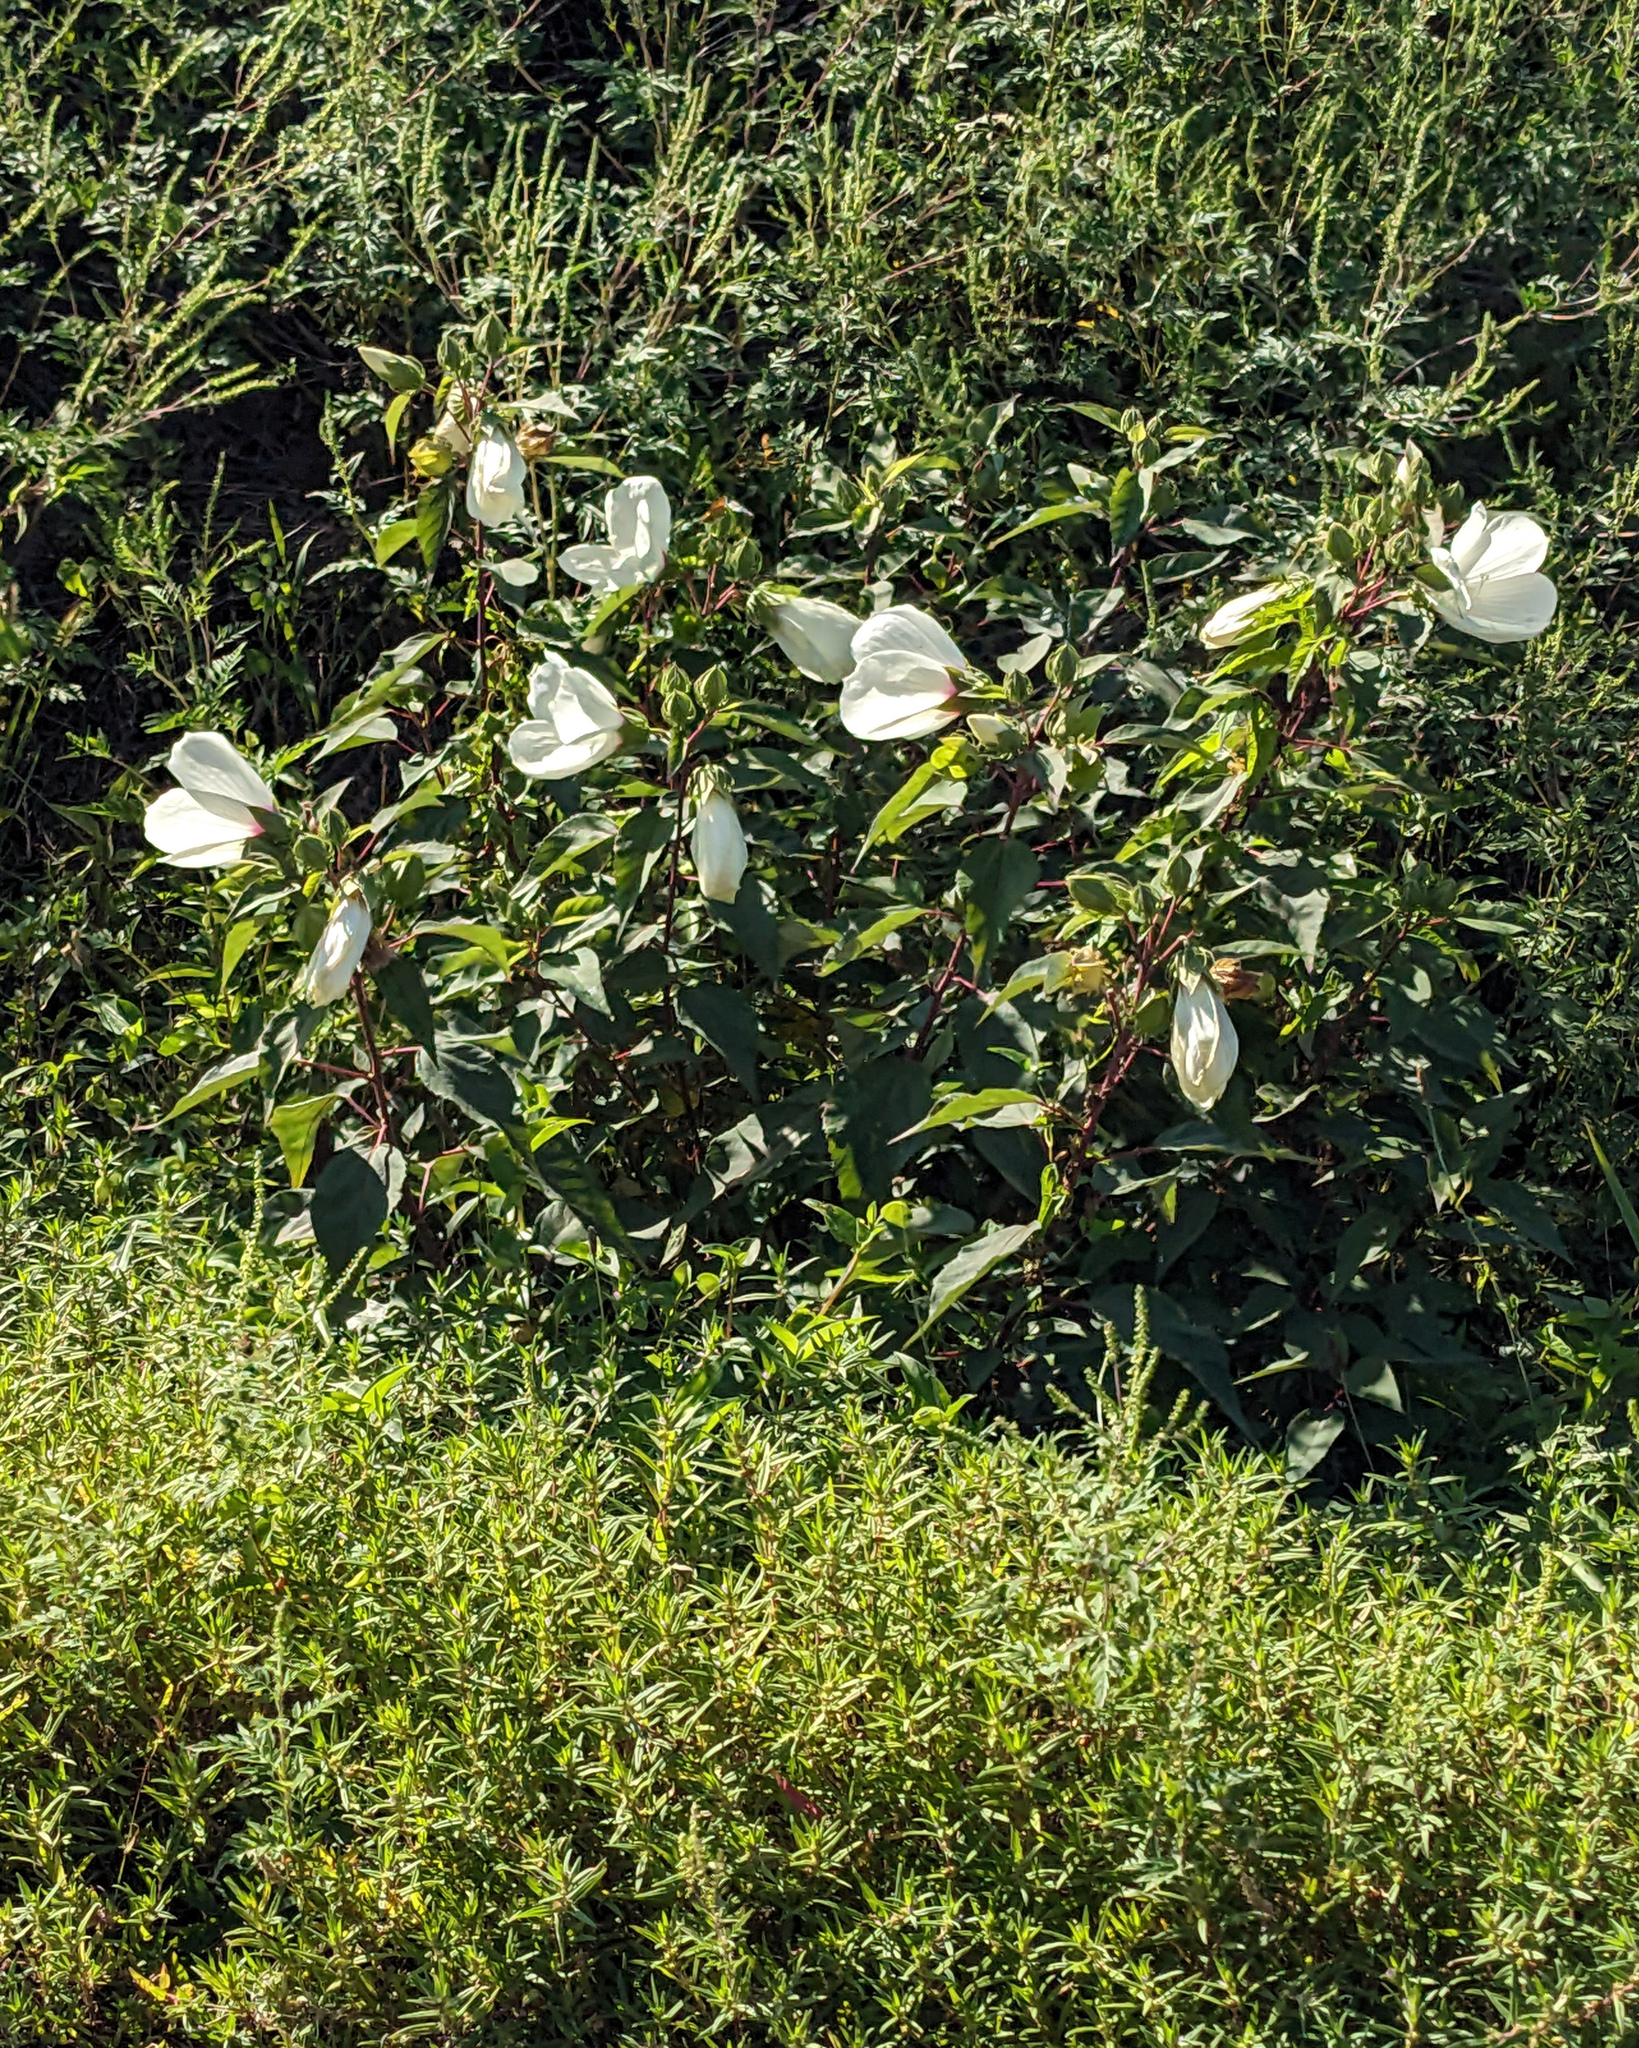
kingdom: Plantae
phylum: Tracheophyta
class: Magnoliopsida
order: Malvales
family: Malvaceae
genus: Hibiscus
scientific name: Hibiscus moscheutos
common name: Common rose-mallow
